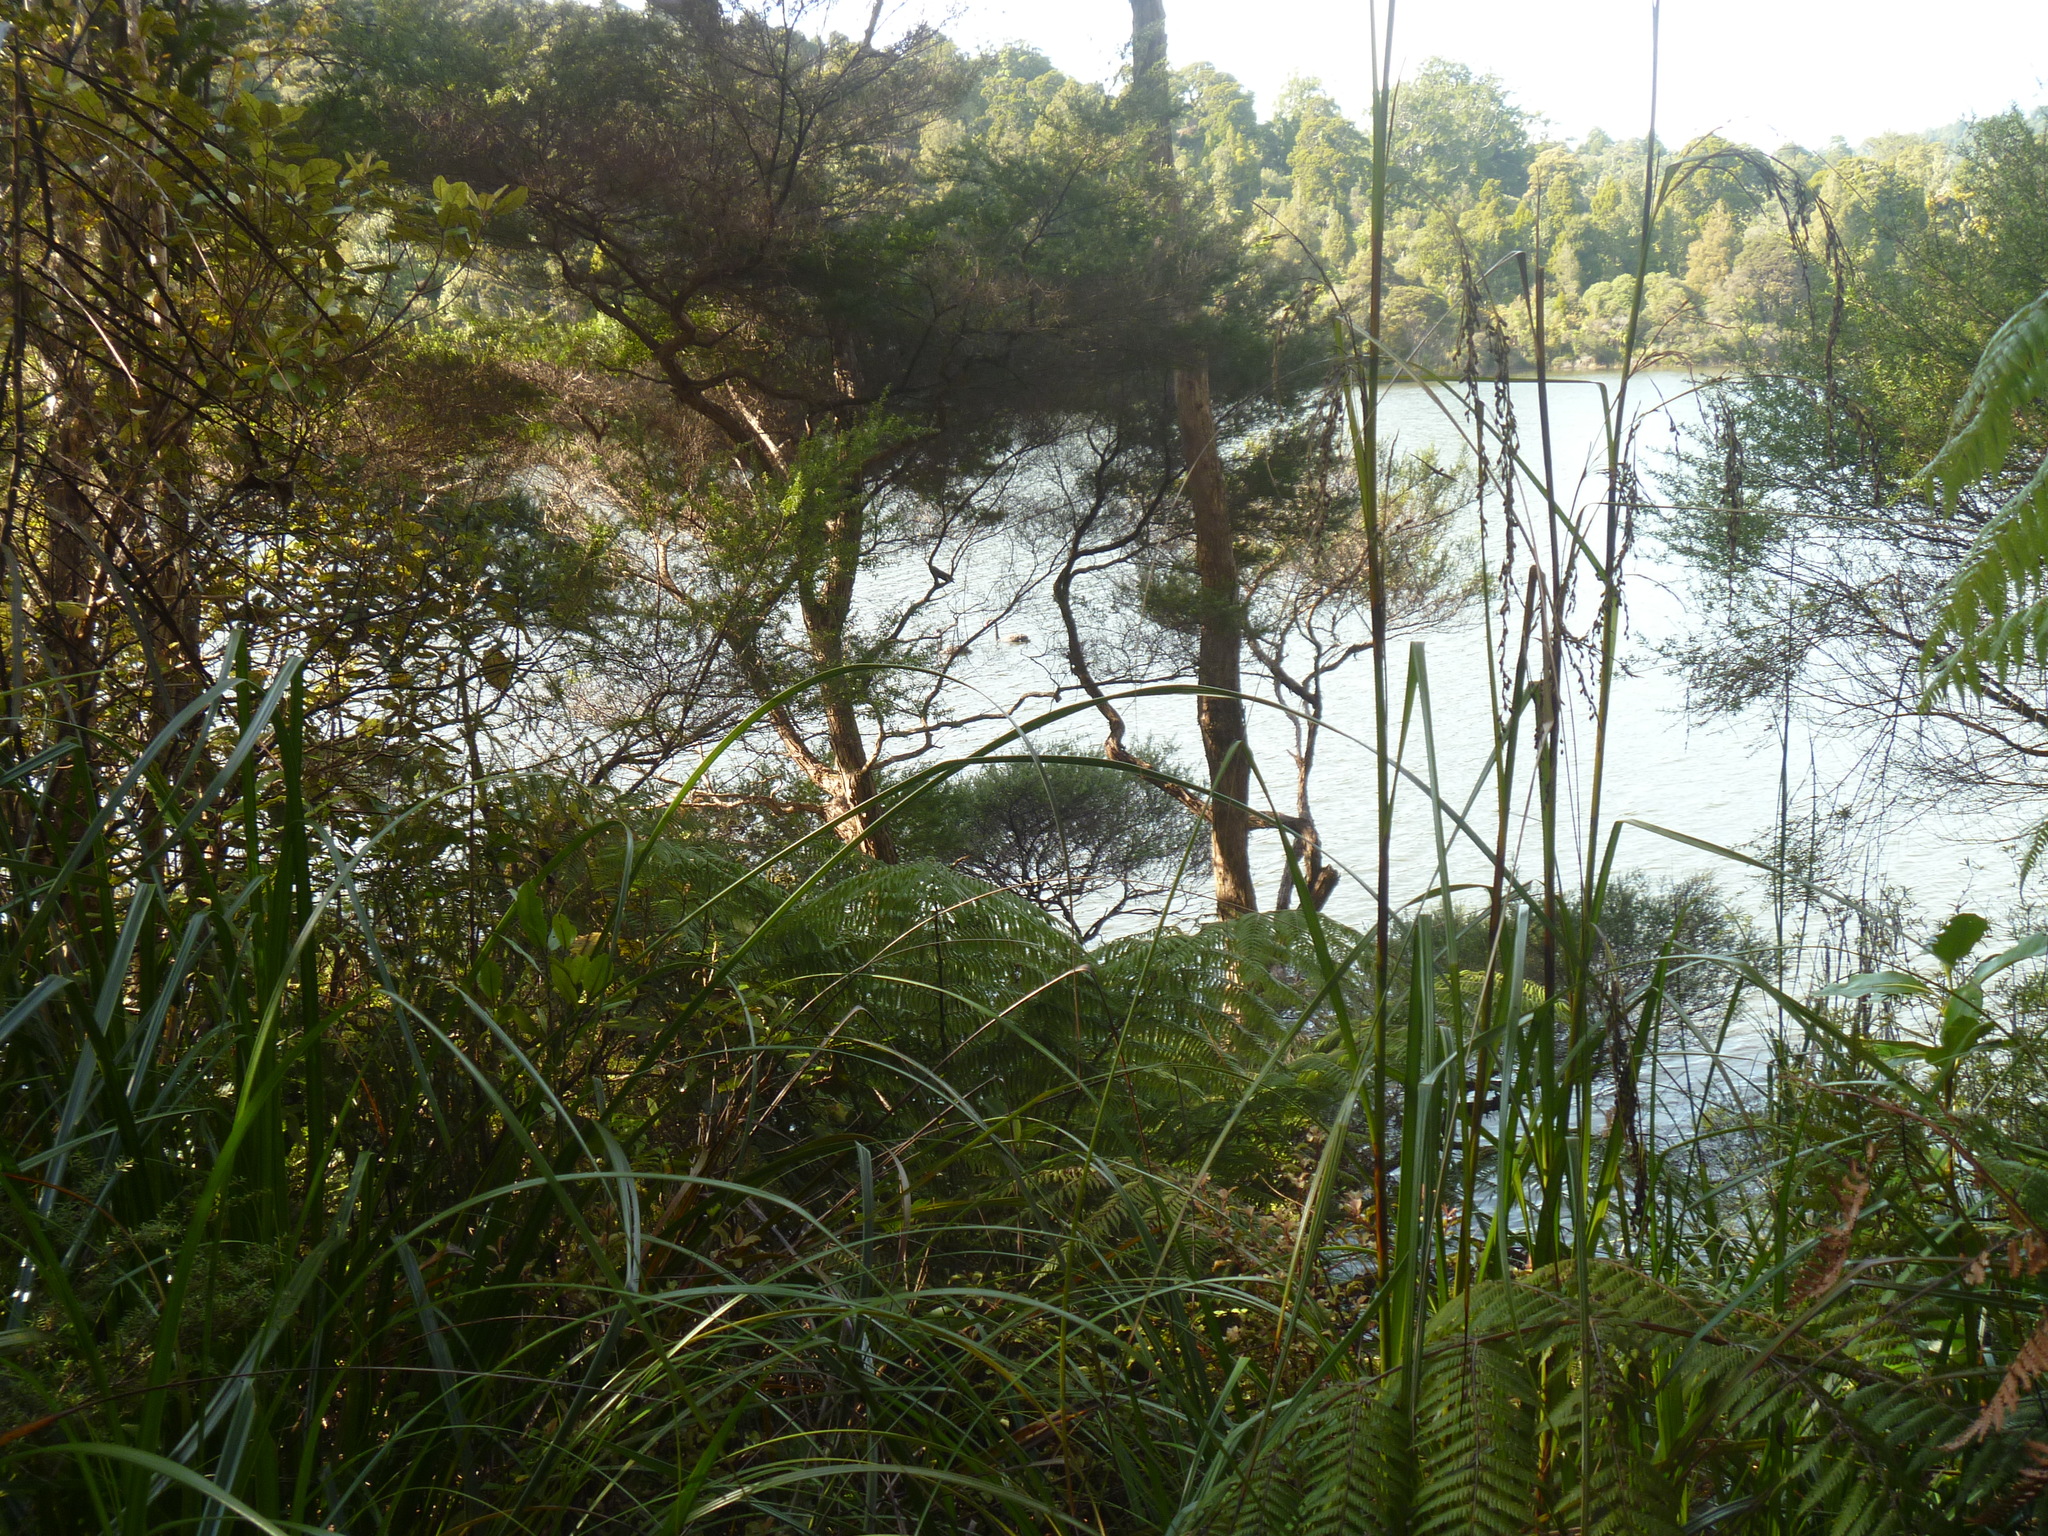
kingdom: Animalia
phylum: Chordata
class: Aves
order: Anseriformes
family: Anatidae
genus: Cygnus
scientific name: Cygnus atratus
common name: Black swan
